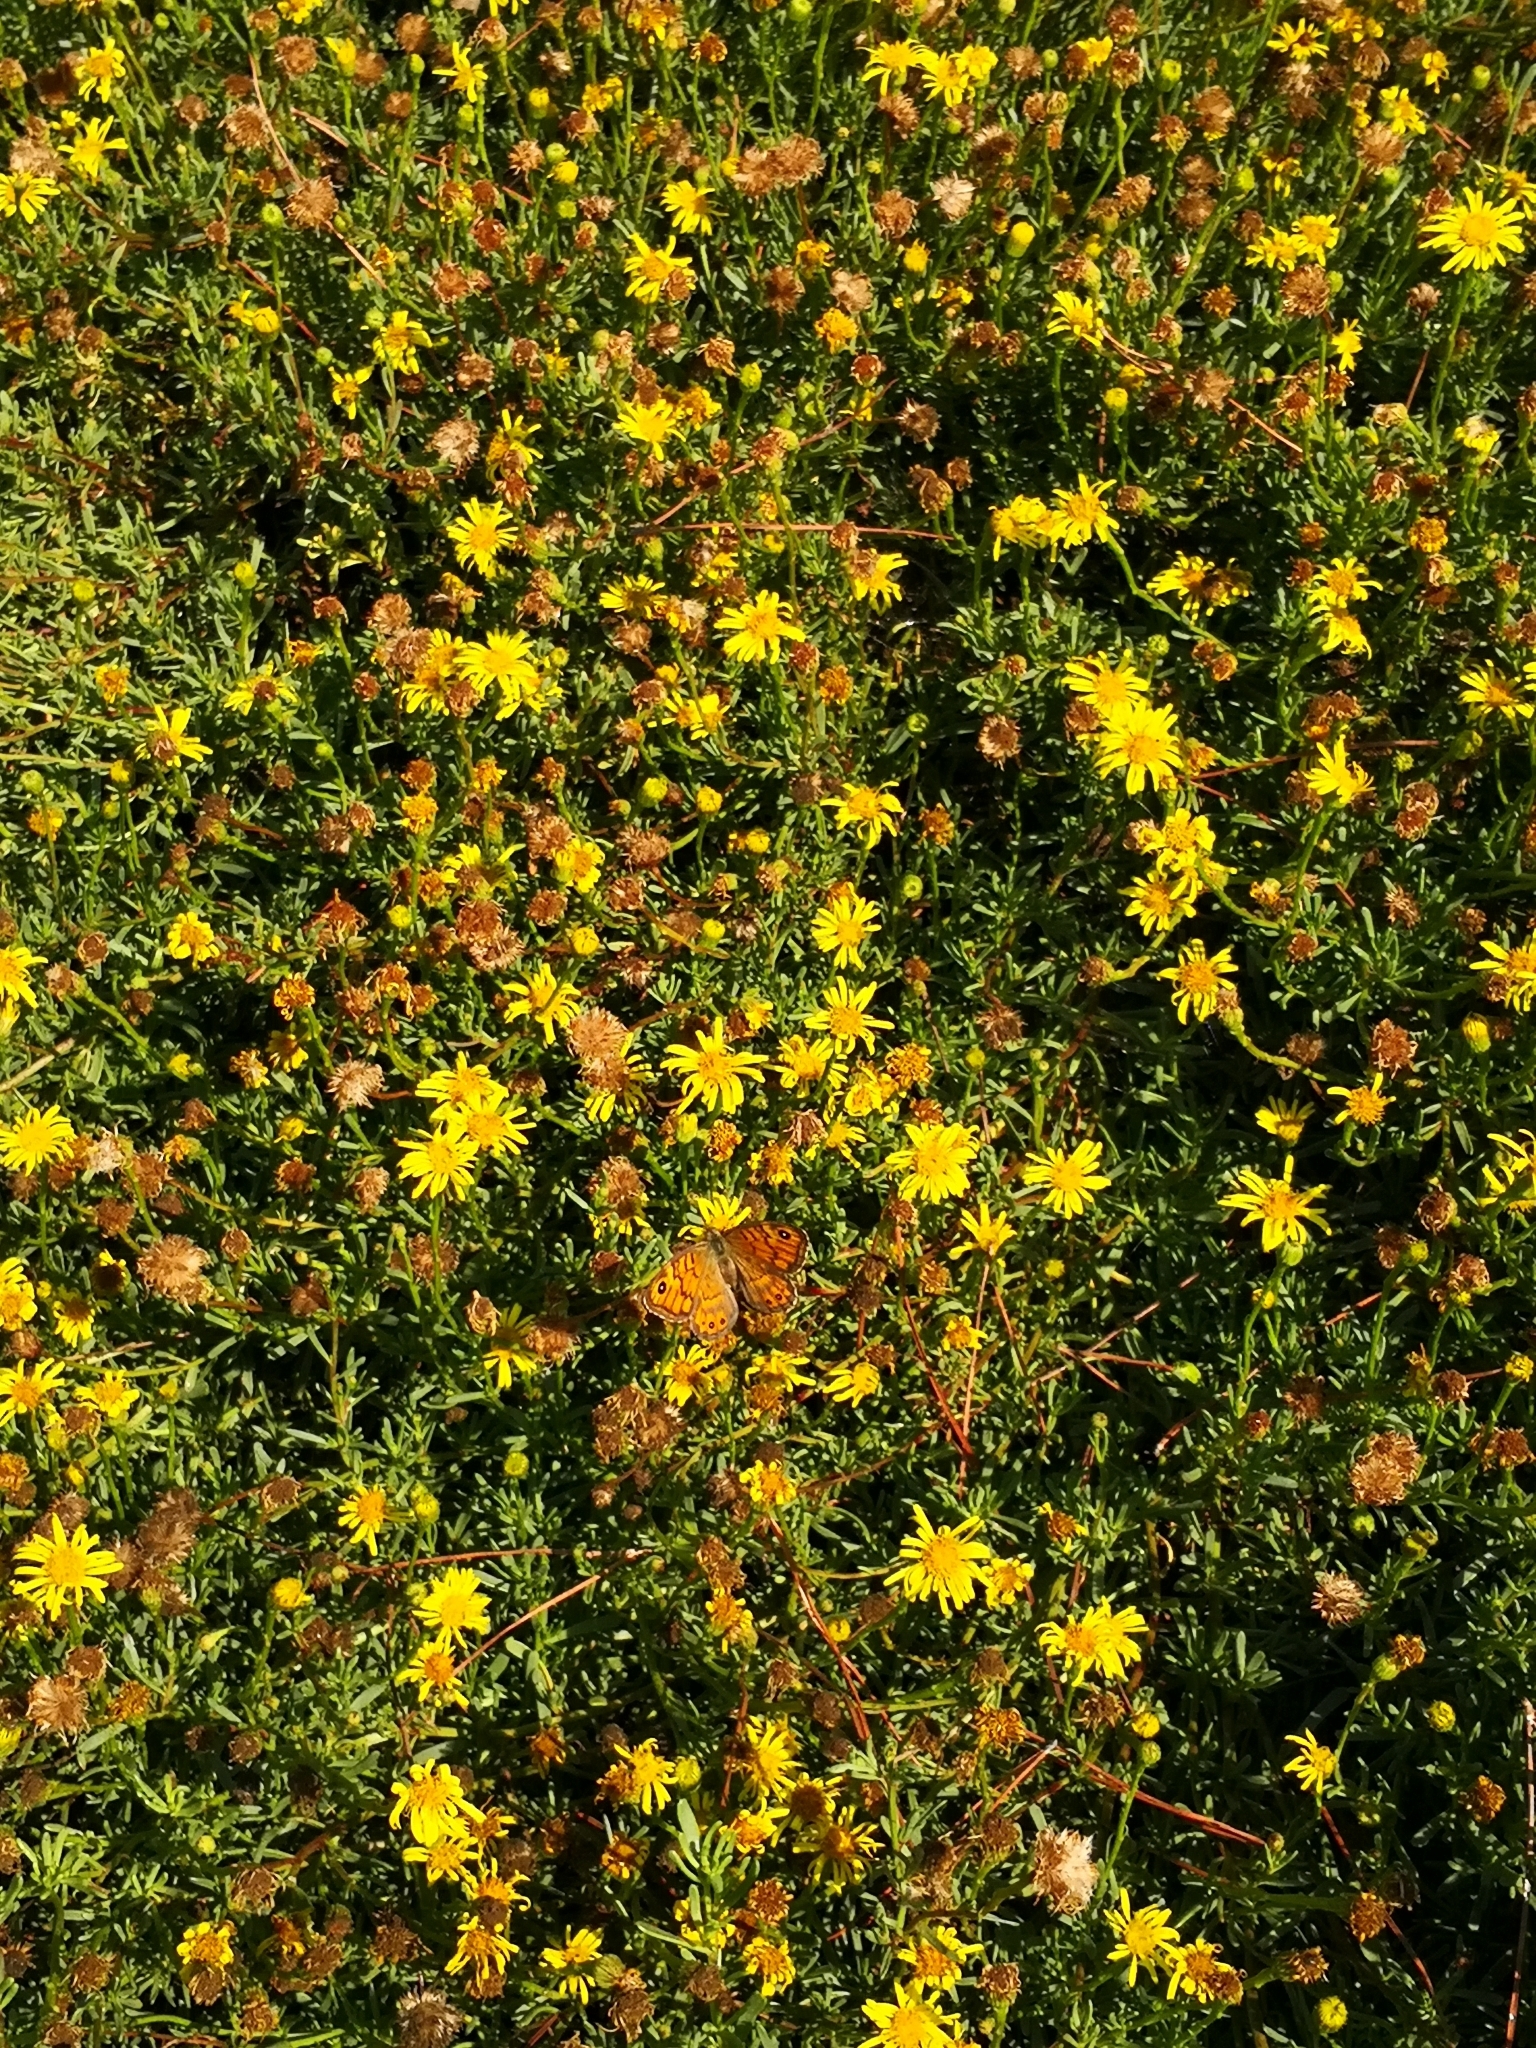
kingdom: Animalia
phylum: Arthropoda
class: Insecta
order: Lepidoptera
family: Nymphalidae
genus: Pararge
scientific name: Pararge Lasiommata megera
